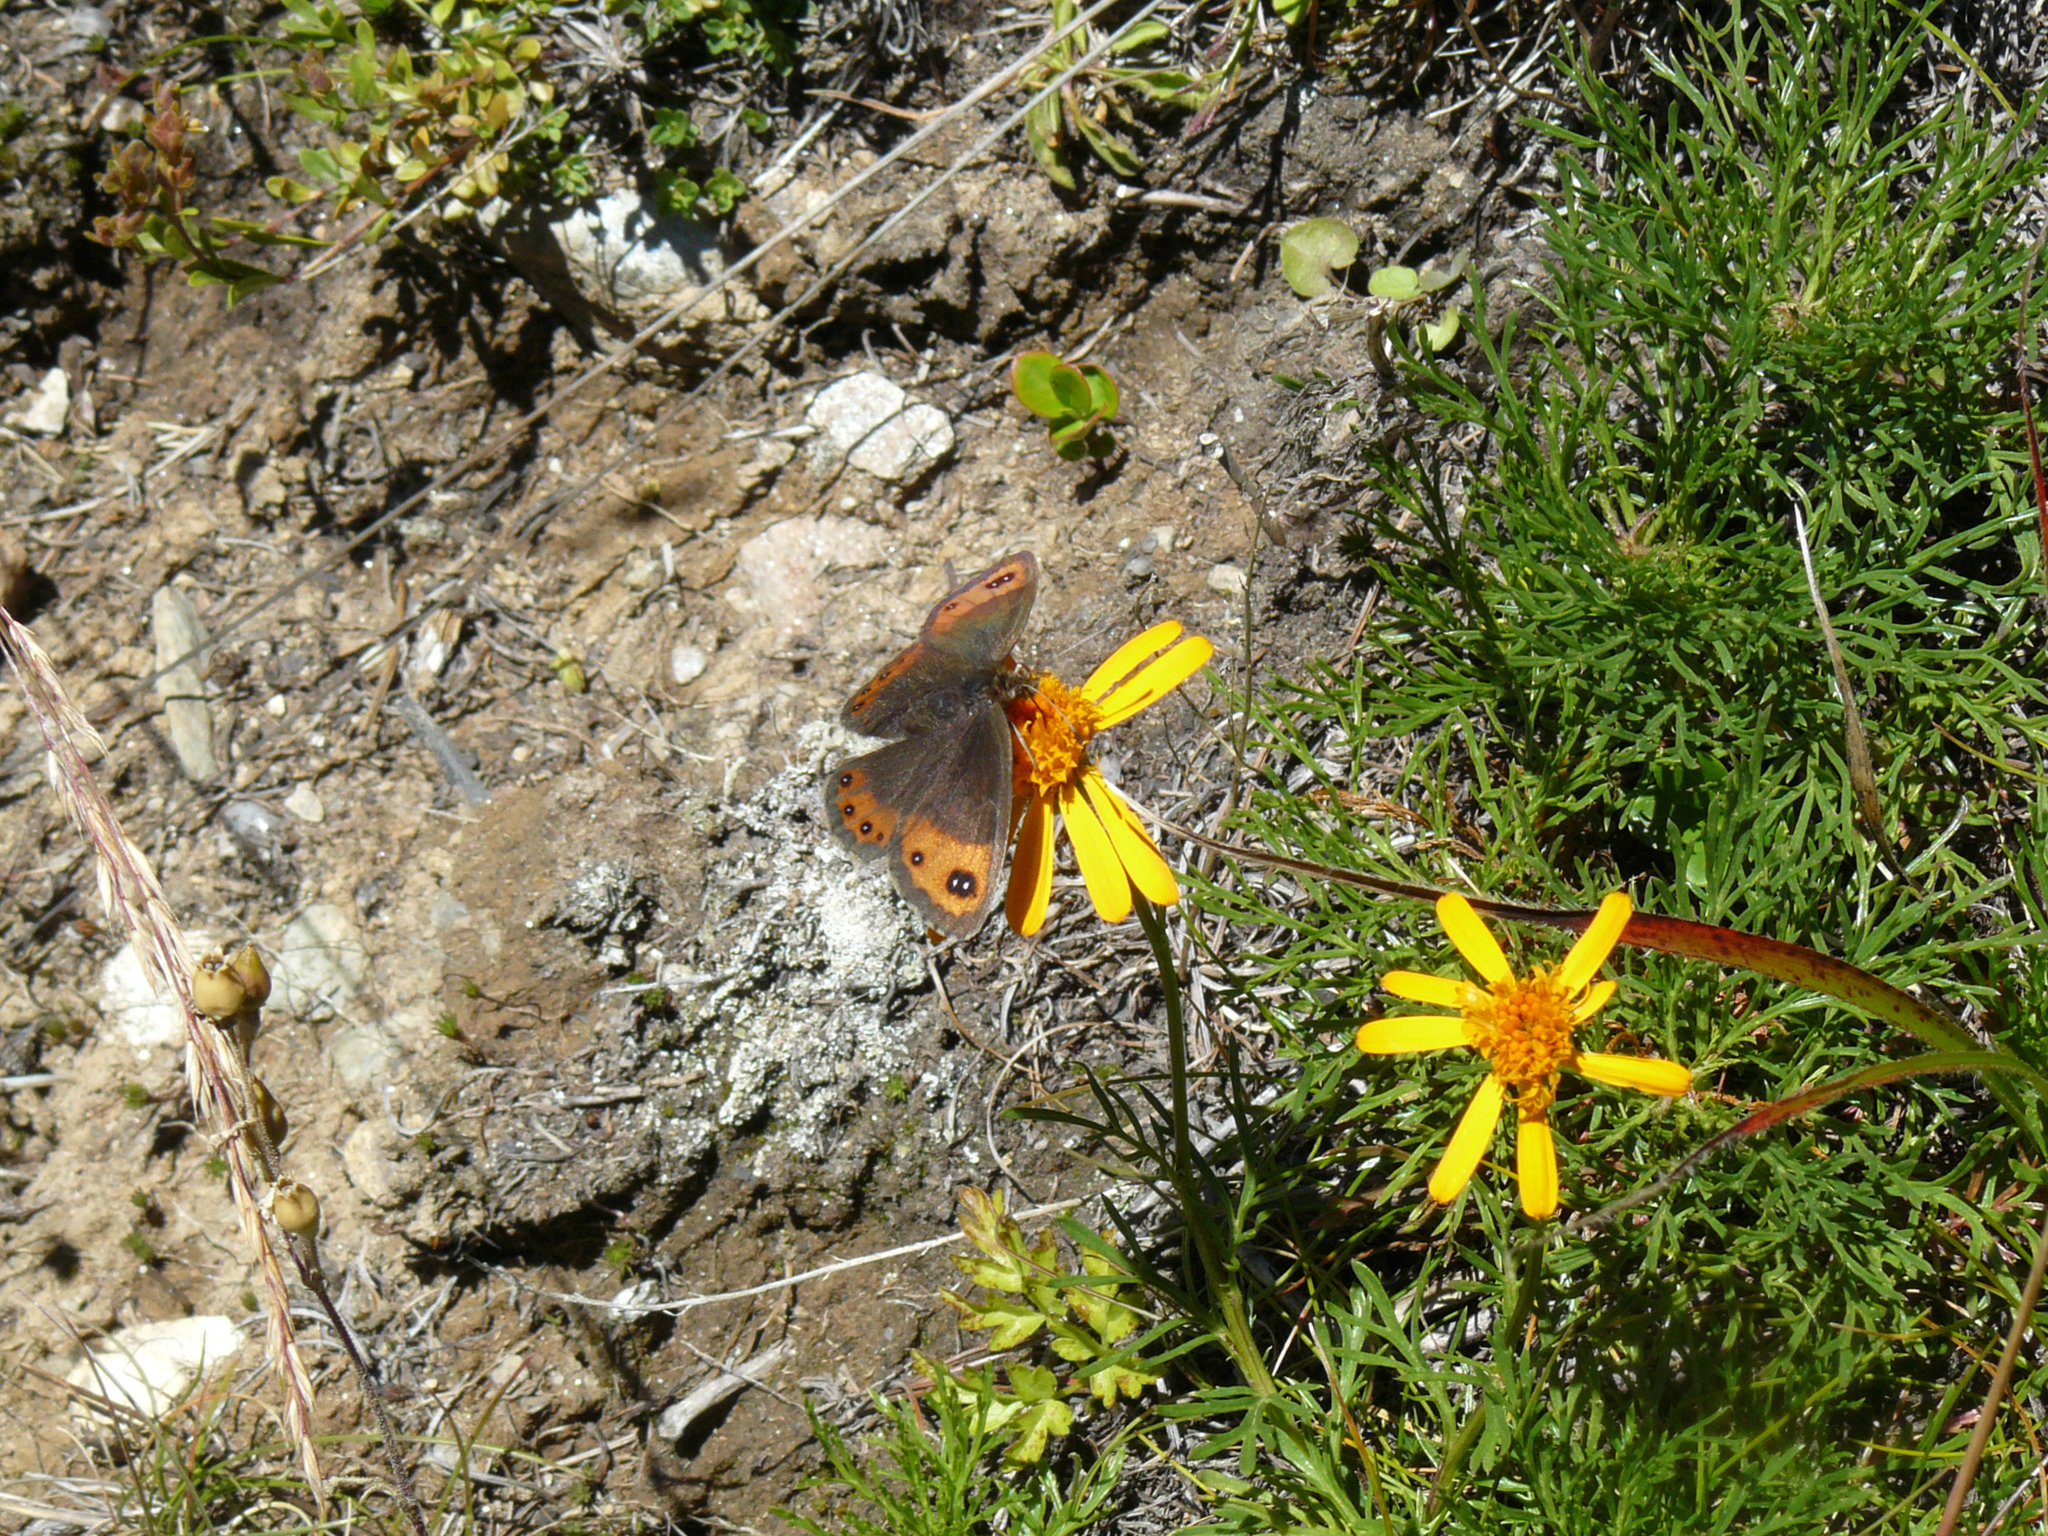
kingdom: Animalia
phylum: Arthropoda
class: Insecta
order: Lepidoptera
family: Nymphalidae
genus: Erebia
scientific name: Erebia montanus
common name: Marbled ringlet
